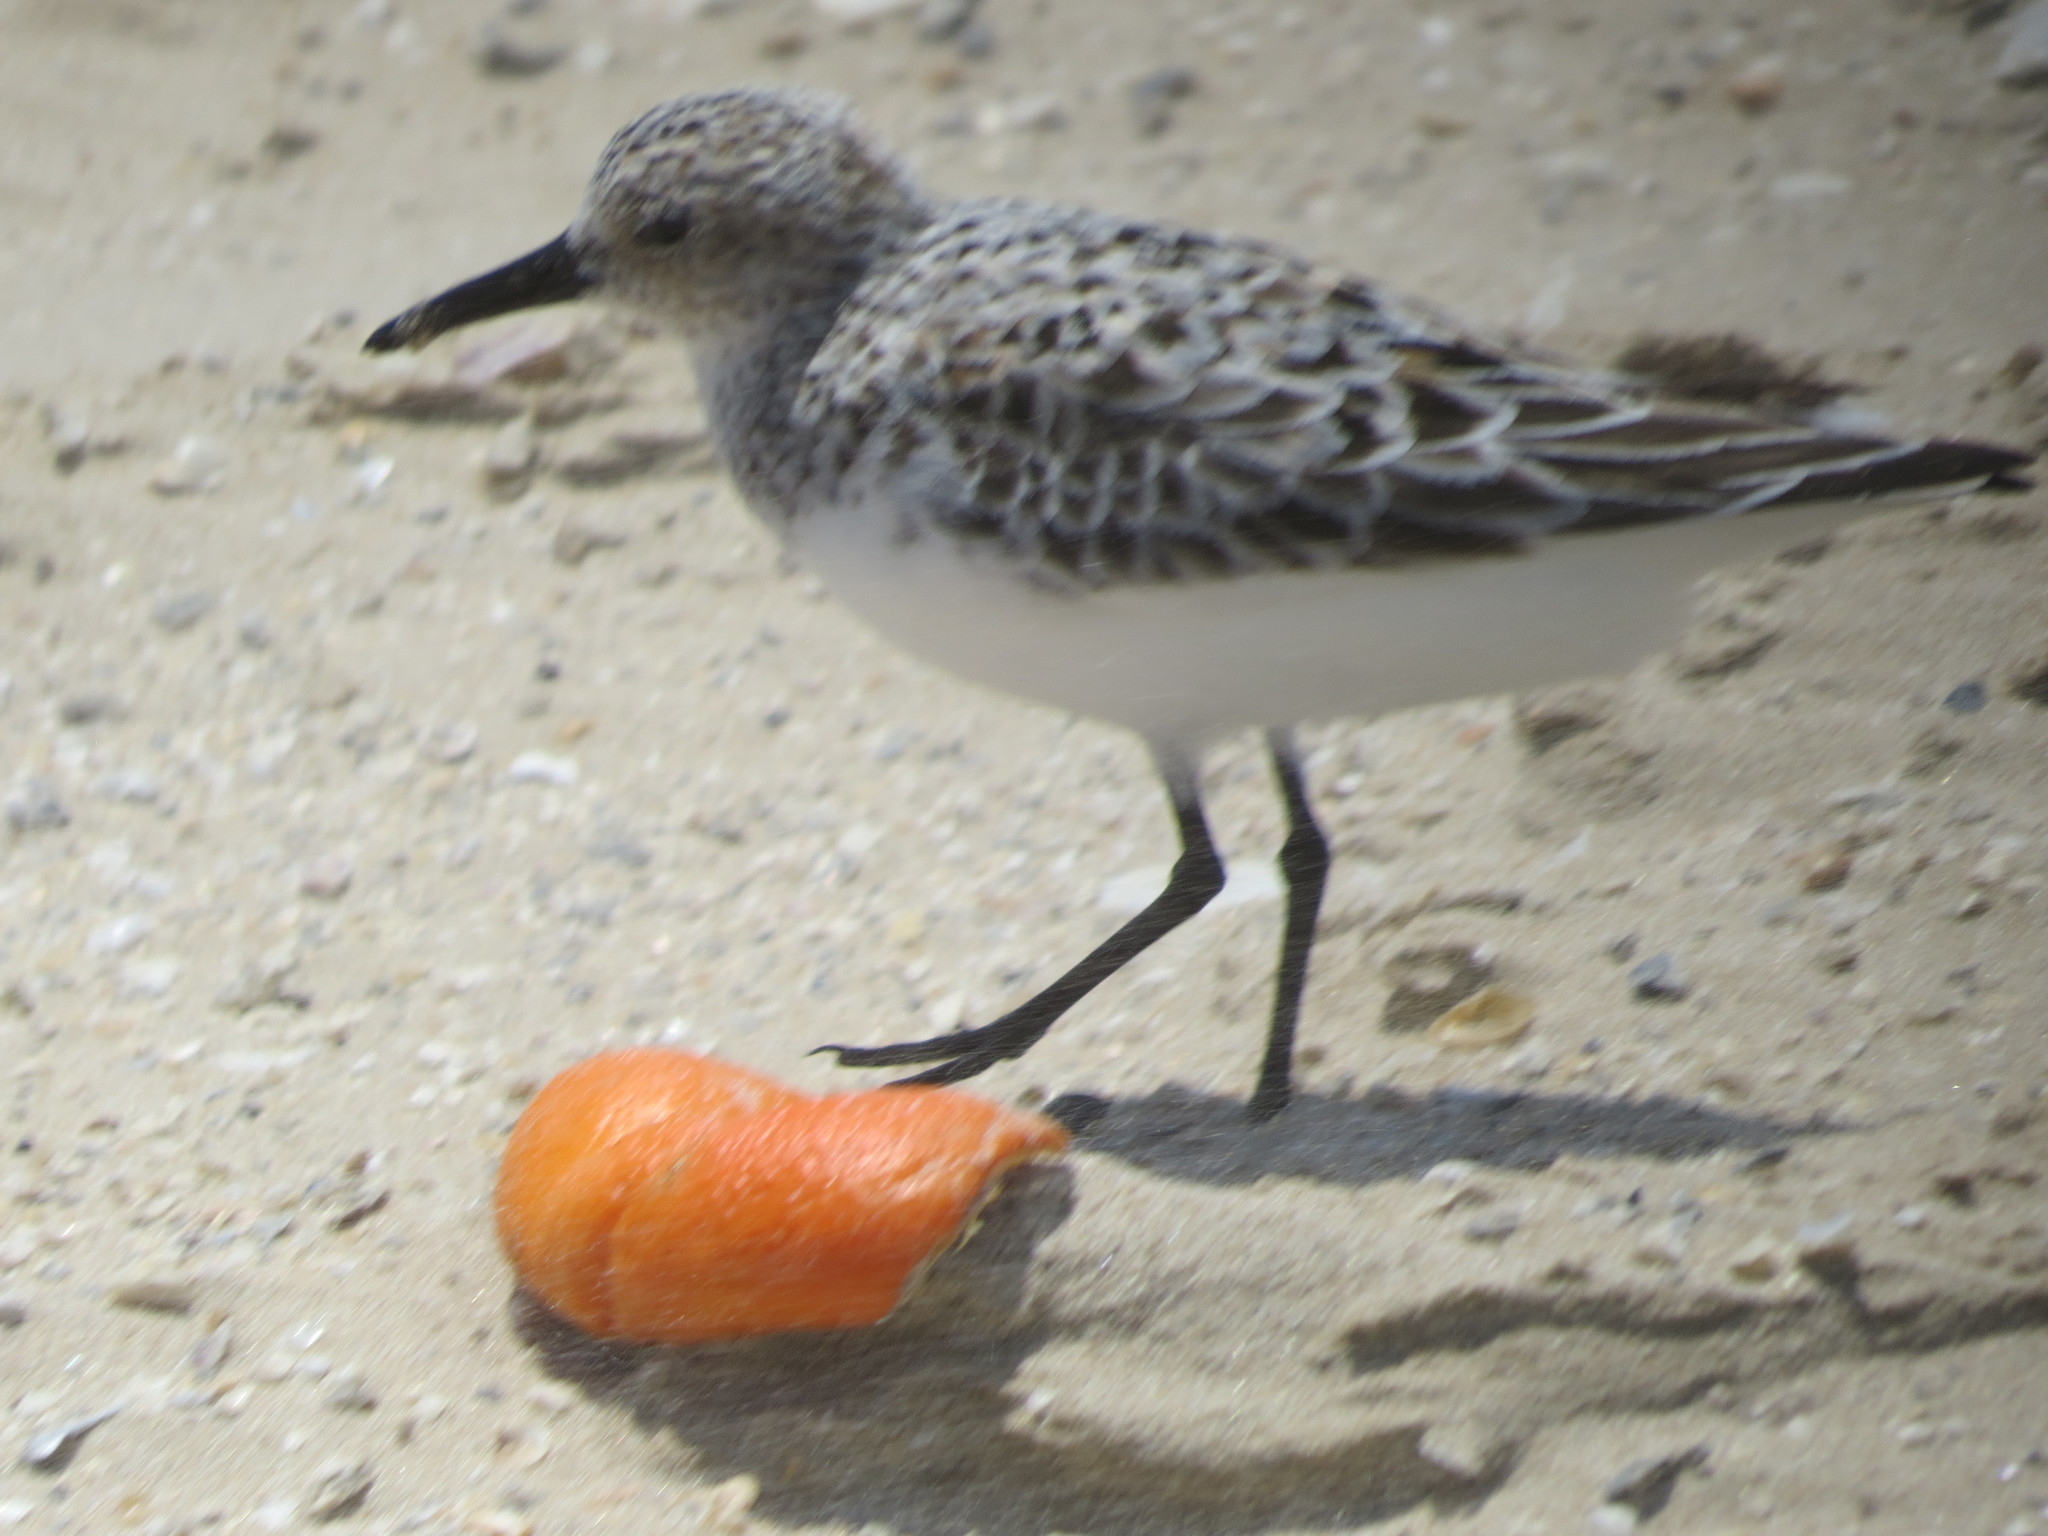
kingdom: Animalia
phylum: Chordata
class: Aves
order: Charadriiformes
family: Scolopacidae
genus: Calidris
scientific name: Calidris alba
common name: Sanderling
